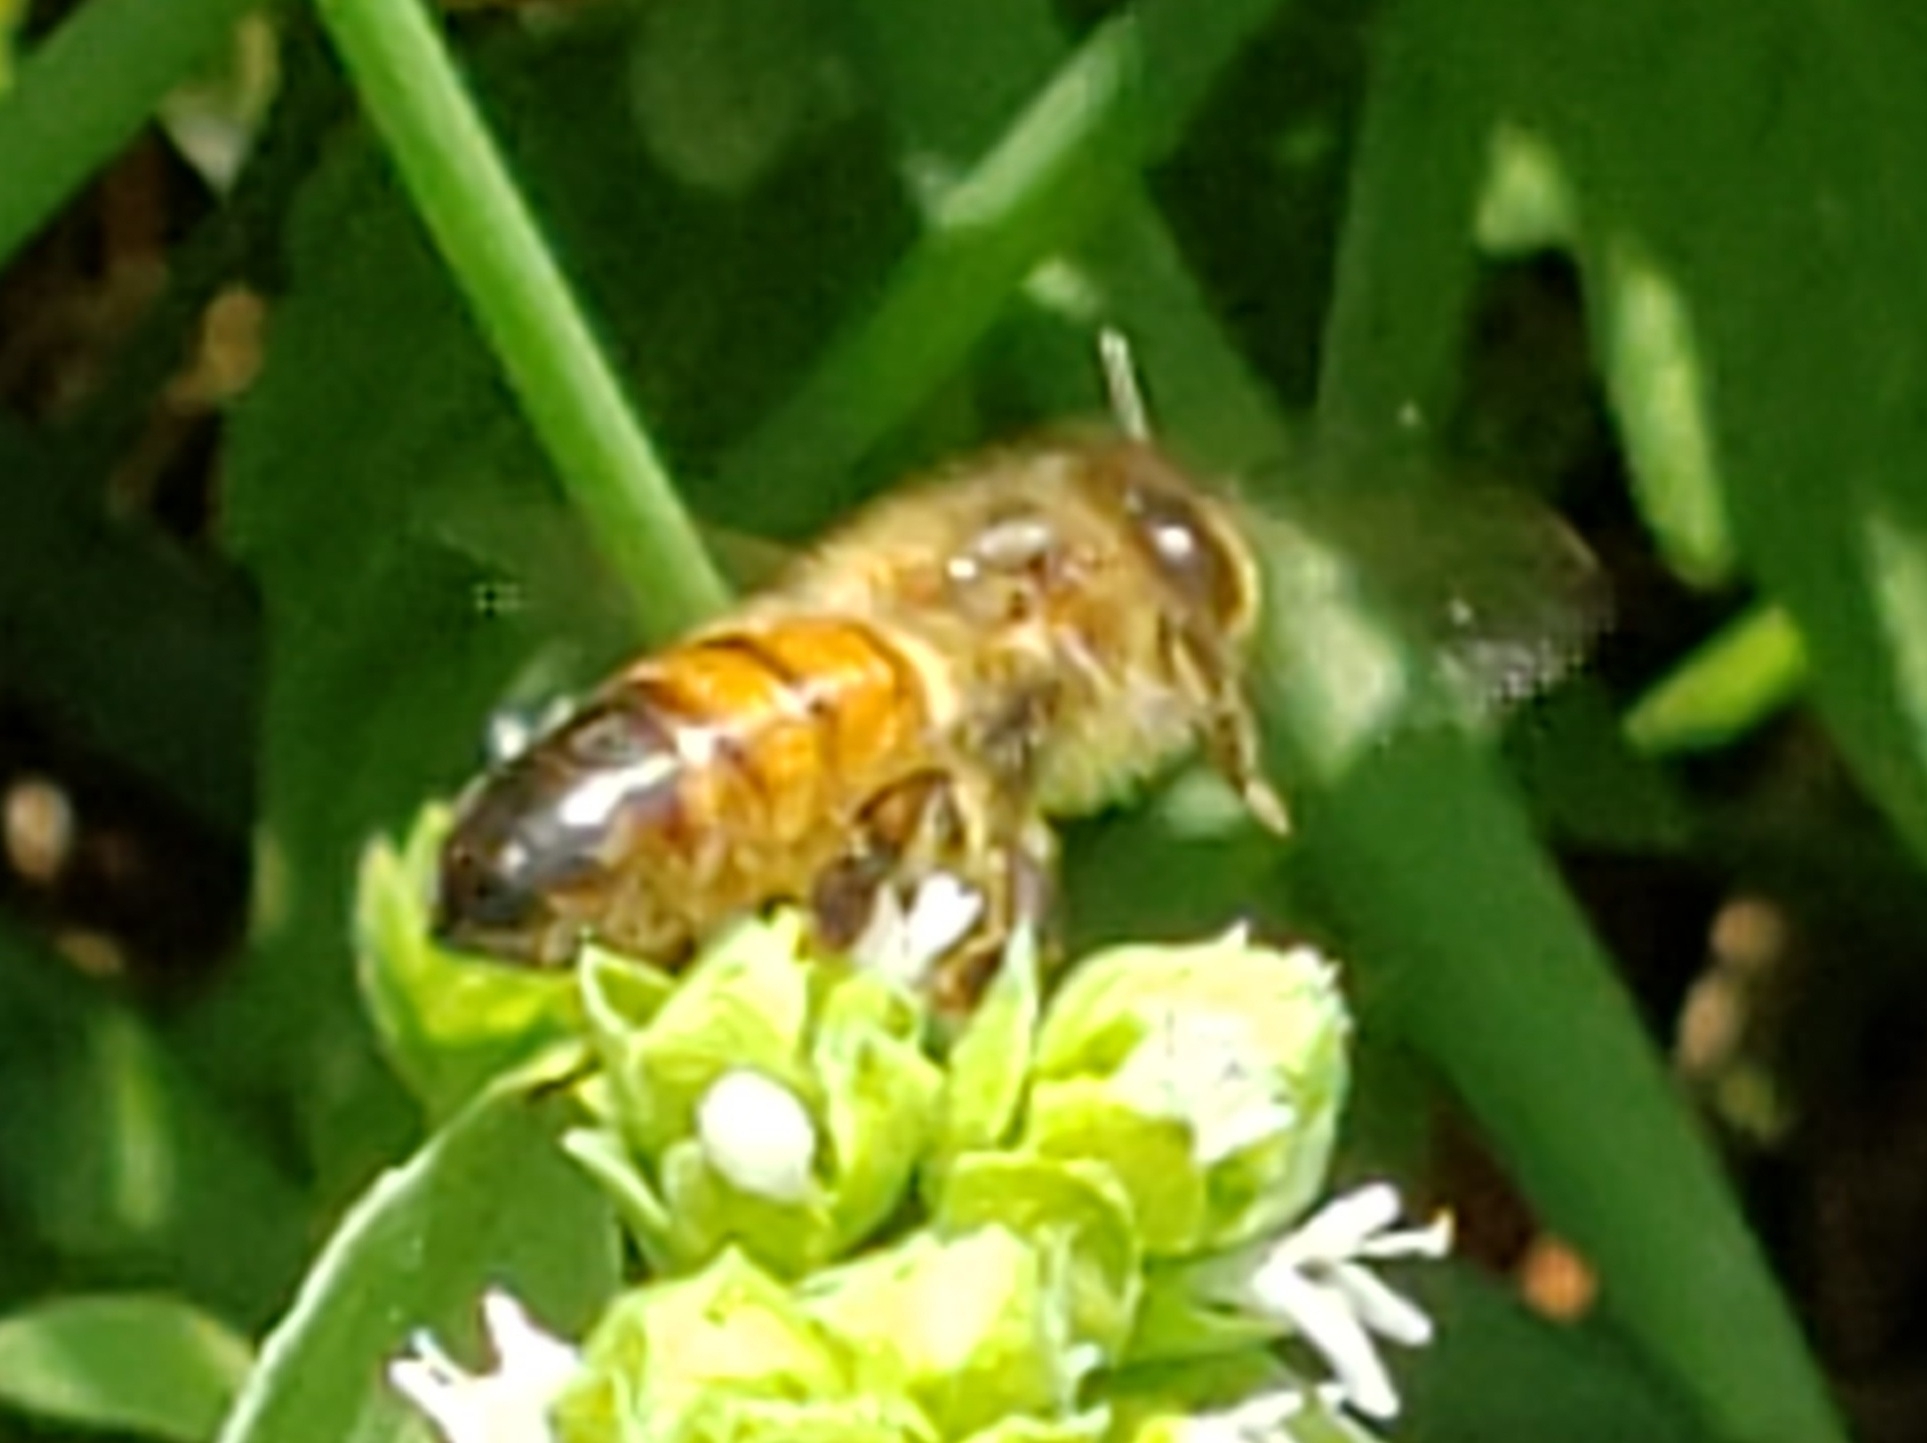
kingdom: Animalia
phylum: Arthropoda
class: Insecta
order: Hymenoptera
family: Apidae
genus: Apis
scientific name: Apis mellifera
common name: Honey bee
